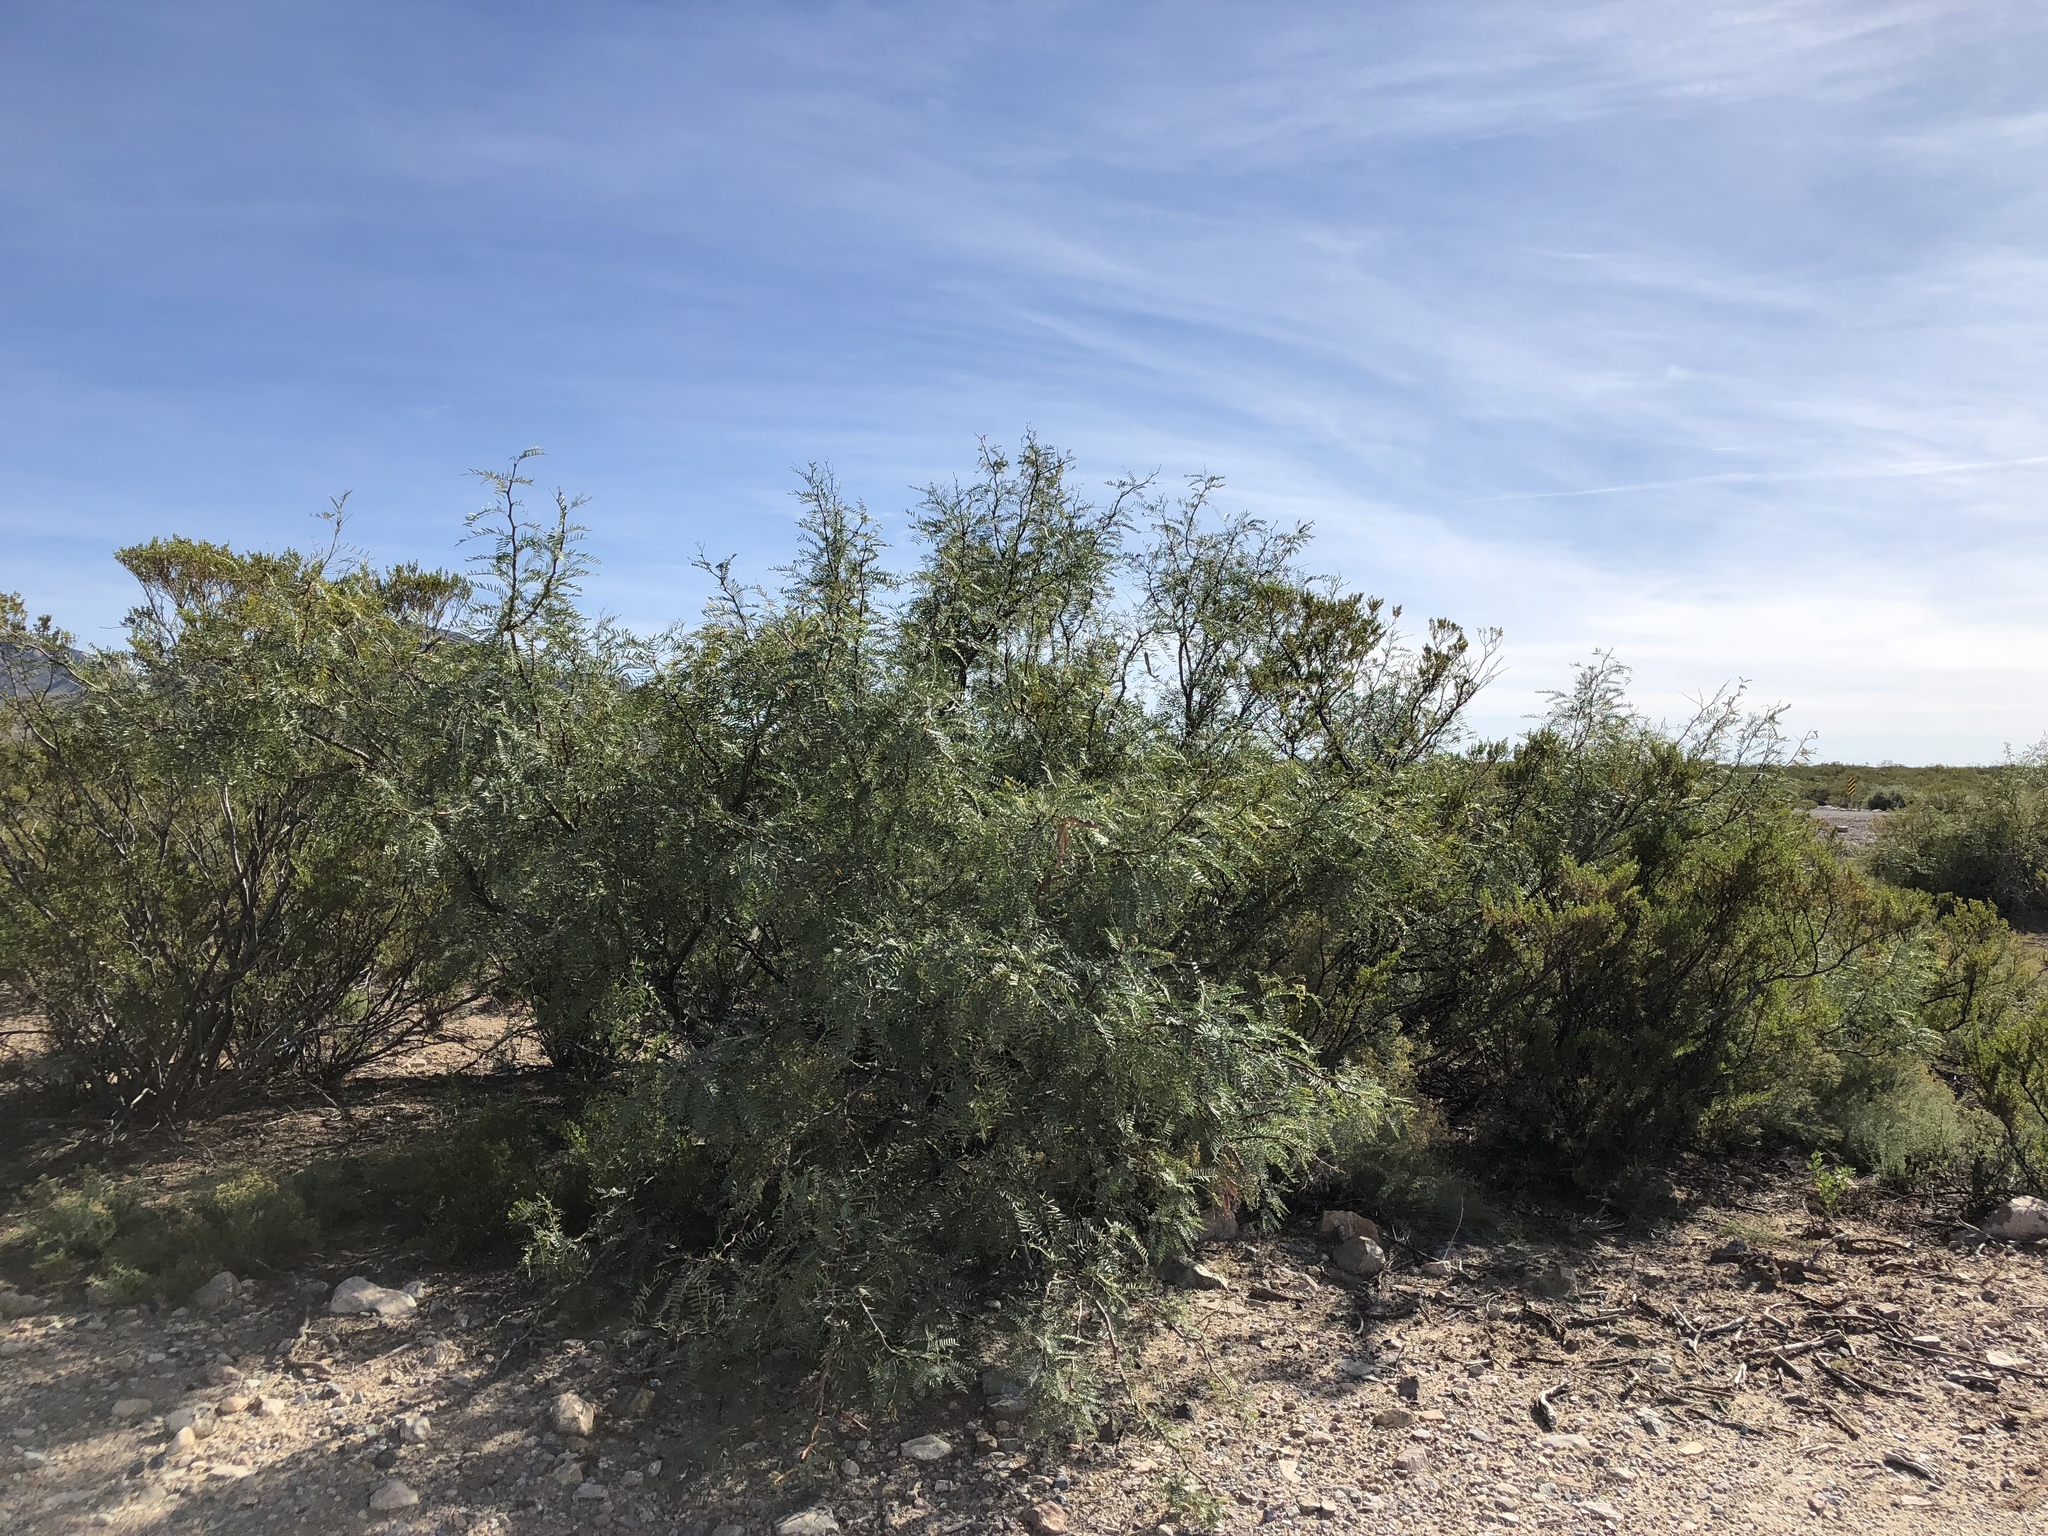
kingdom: Plantae
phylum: Tracheophyta
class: Magnoliopsida
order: Fabales
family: Fabaceae
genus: Prosopis
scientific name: Prosopis glandulosa
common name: Honey mesquite
